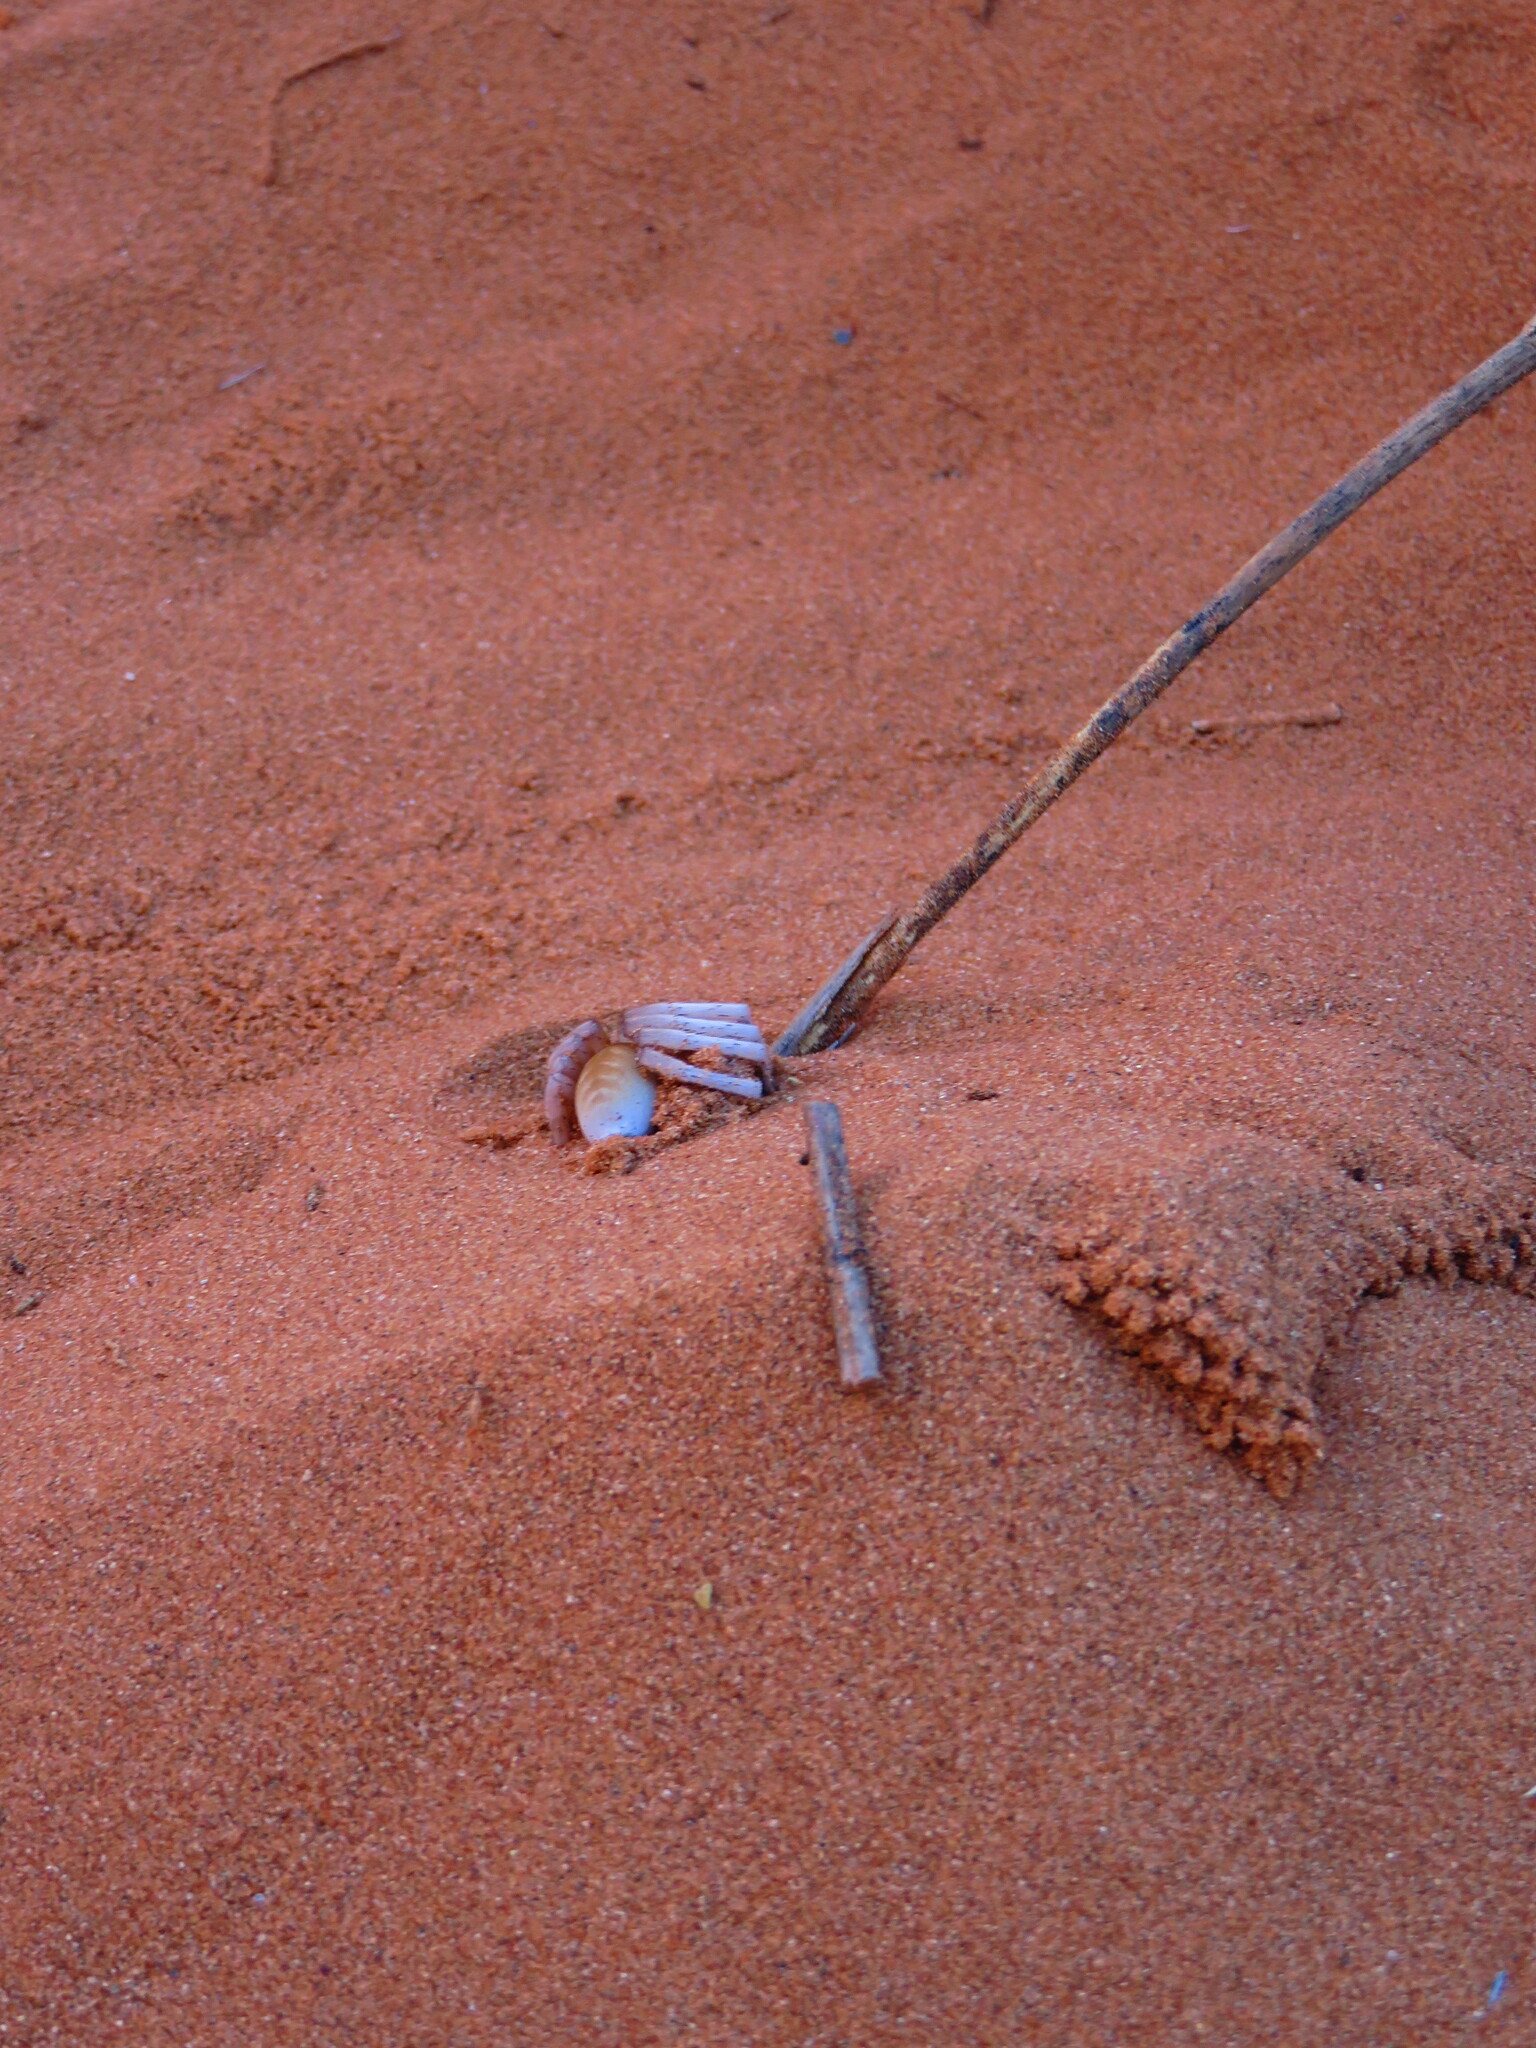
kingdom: Animalia
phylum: Arthropoda
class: Arachnida
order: Araneae
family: Sparassidae
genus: Leucorchestris
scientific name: Leucorchestris arenicola
